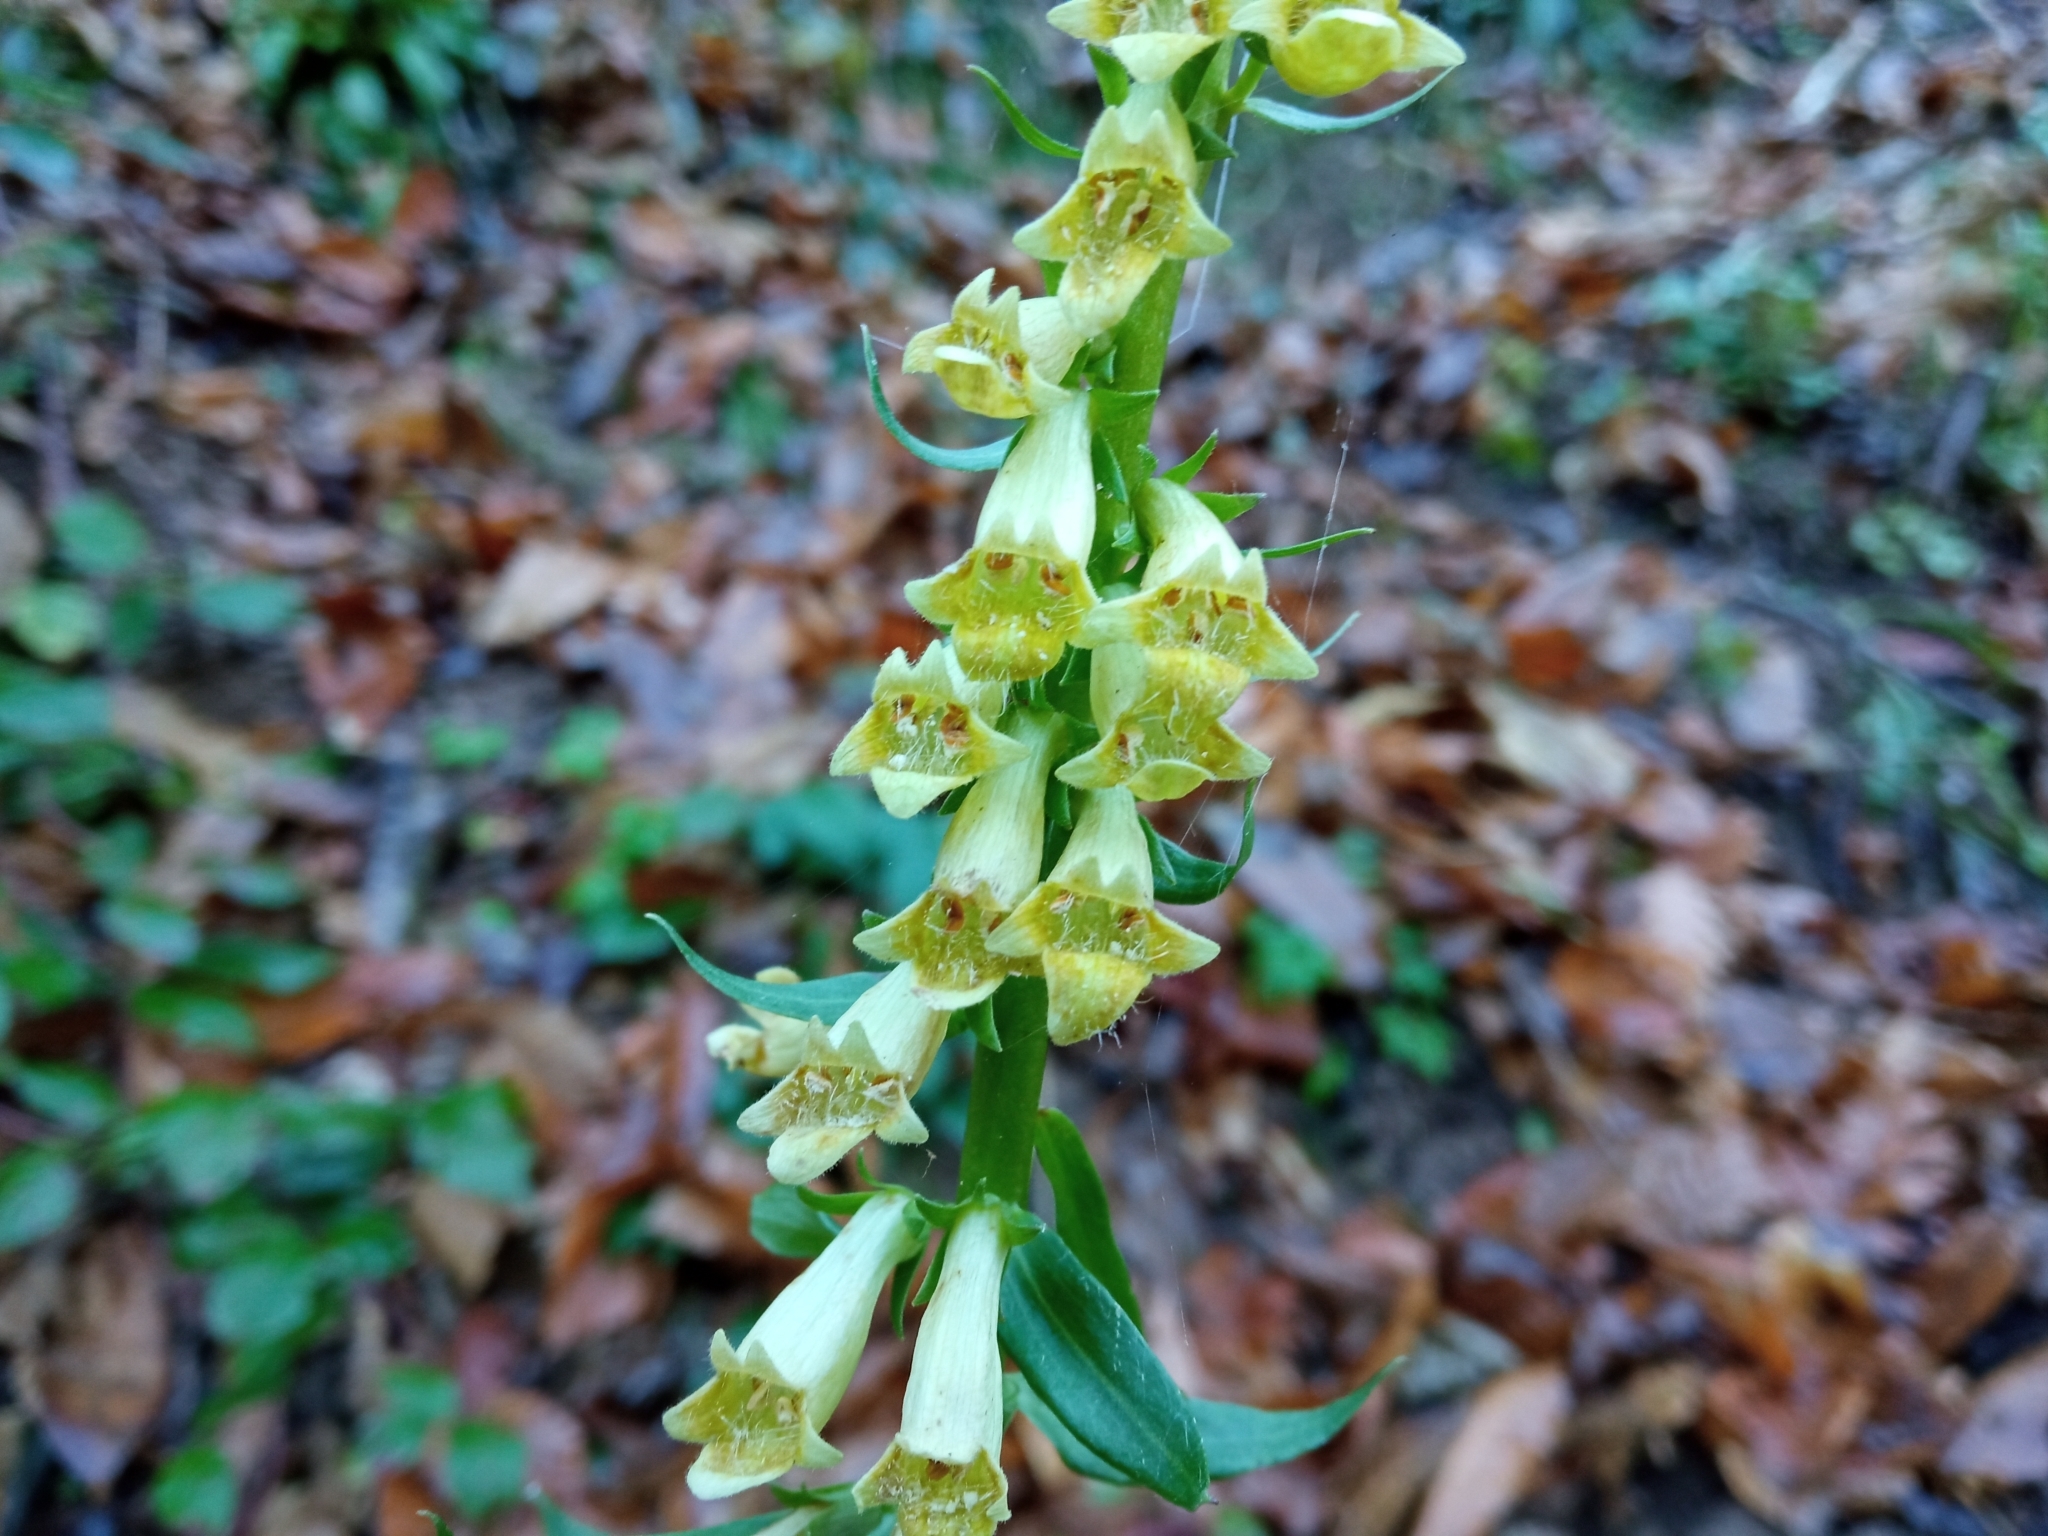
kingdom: Plantae
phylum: Tracheophyta
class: Magnoliopsida
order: Lamiales
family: Plantaginaceae
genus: Digitalis
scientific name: Digitalis lutea
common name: Straw foxglove
